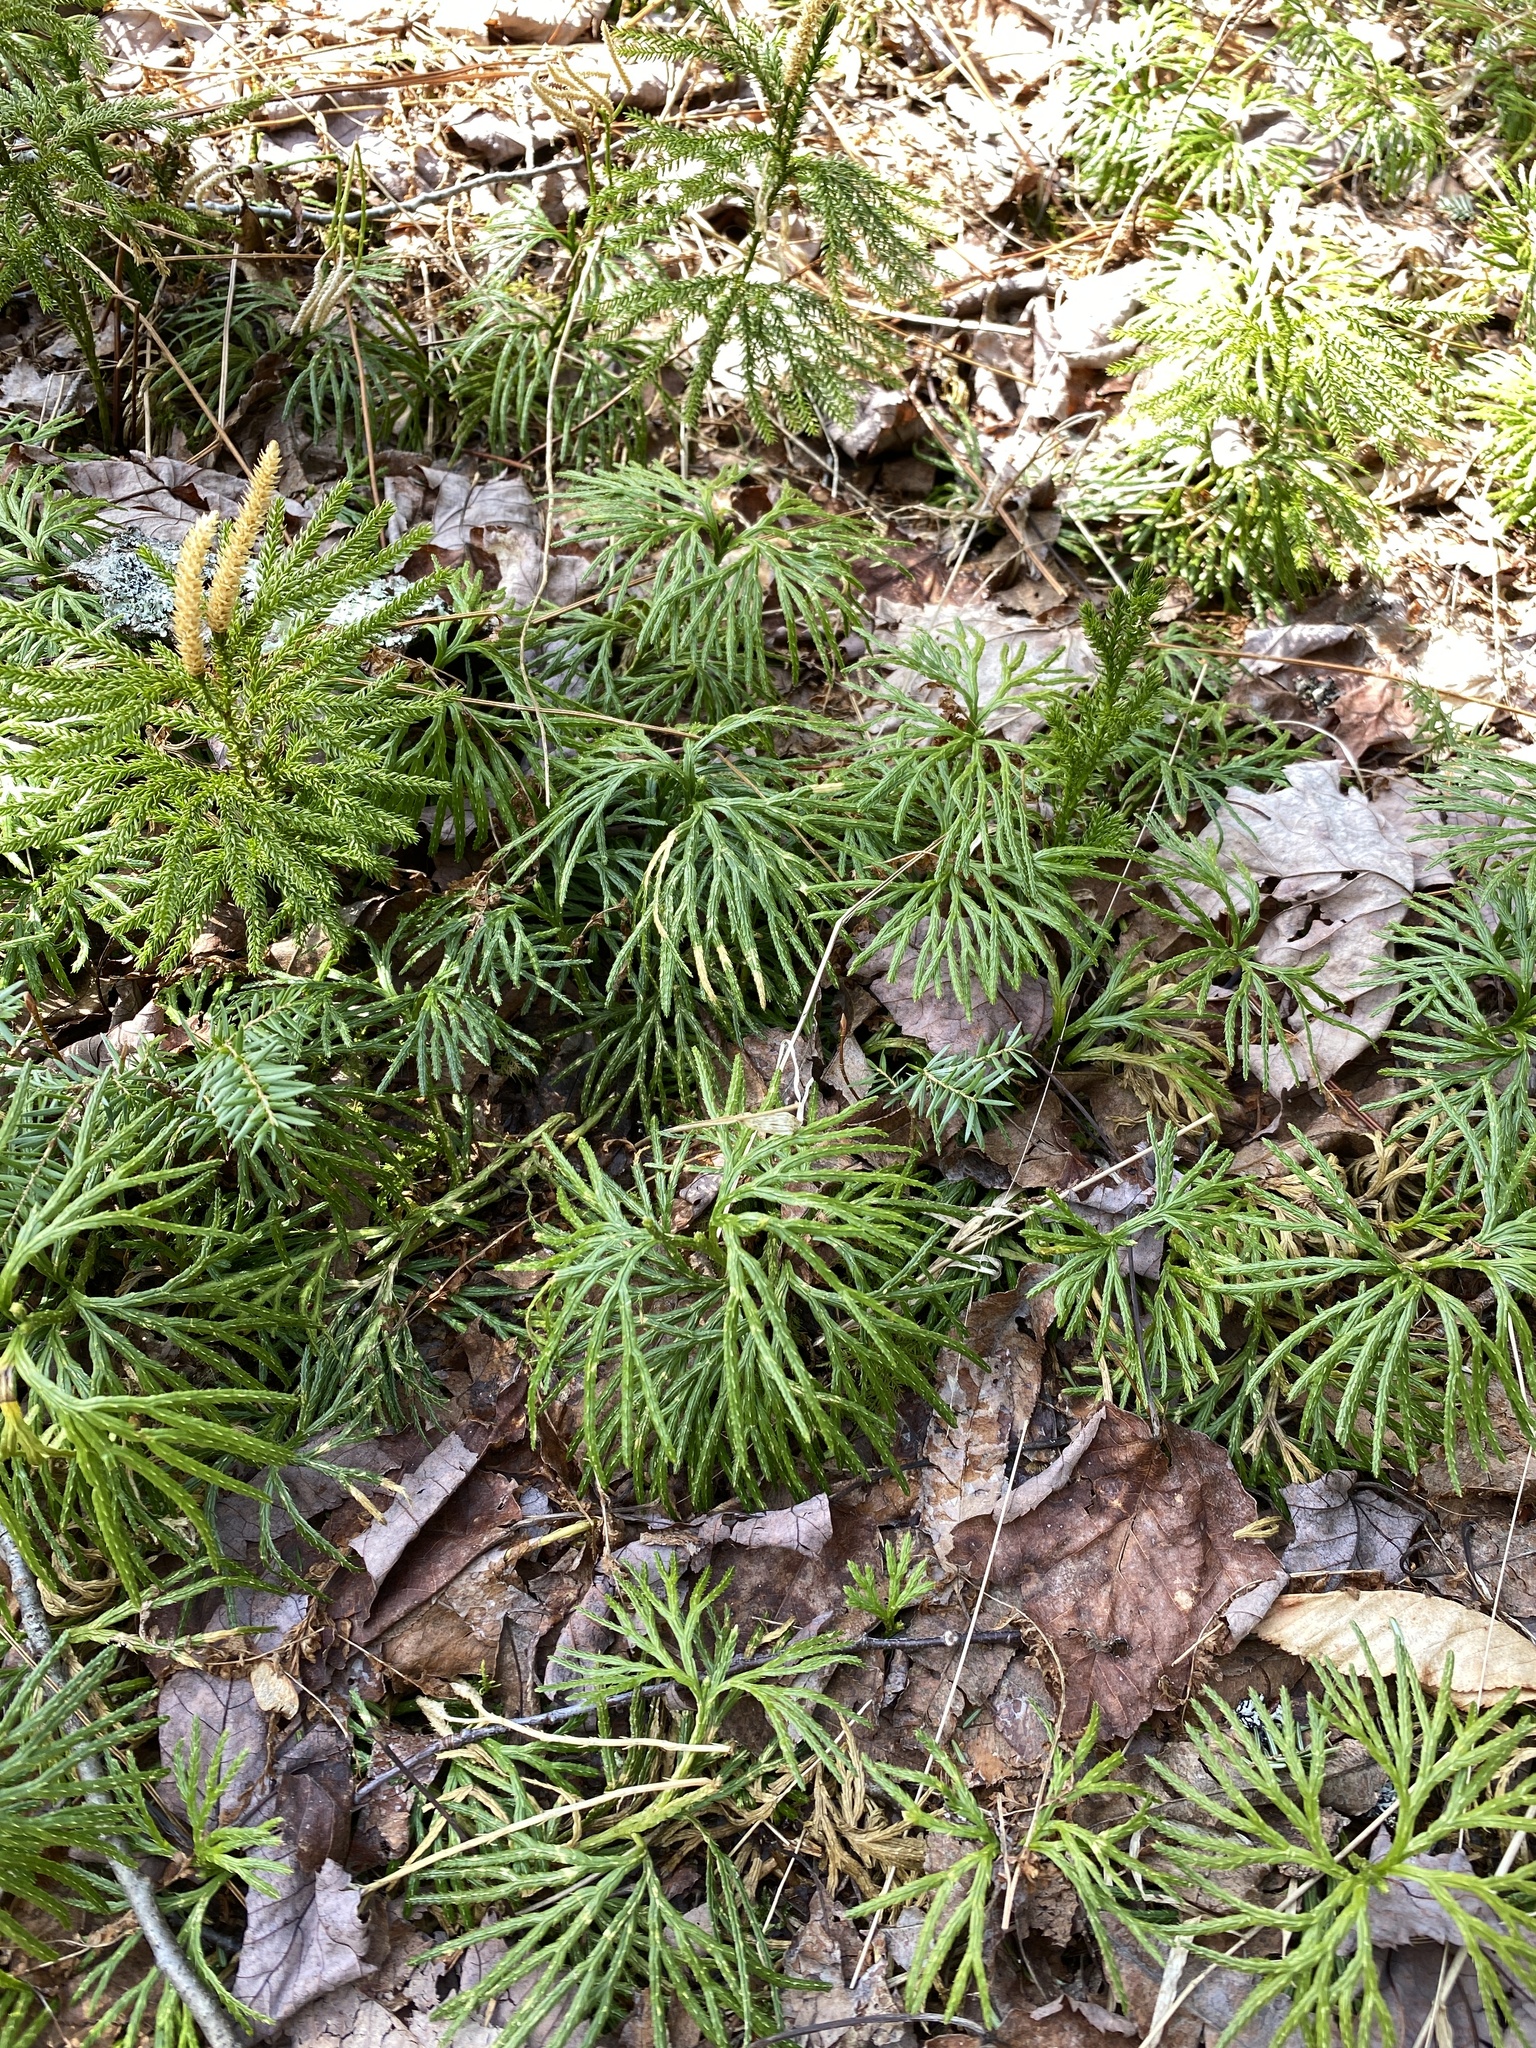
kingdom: Plantae
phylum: Tracheophyta
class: Lycopodiopsida
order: Lycopodiales
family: Lycopodiaceae
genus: Diphasiastrum
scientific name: Diphasiastrum digitatum
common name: Southern running-pine
